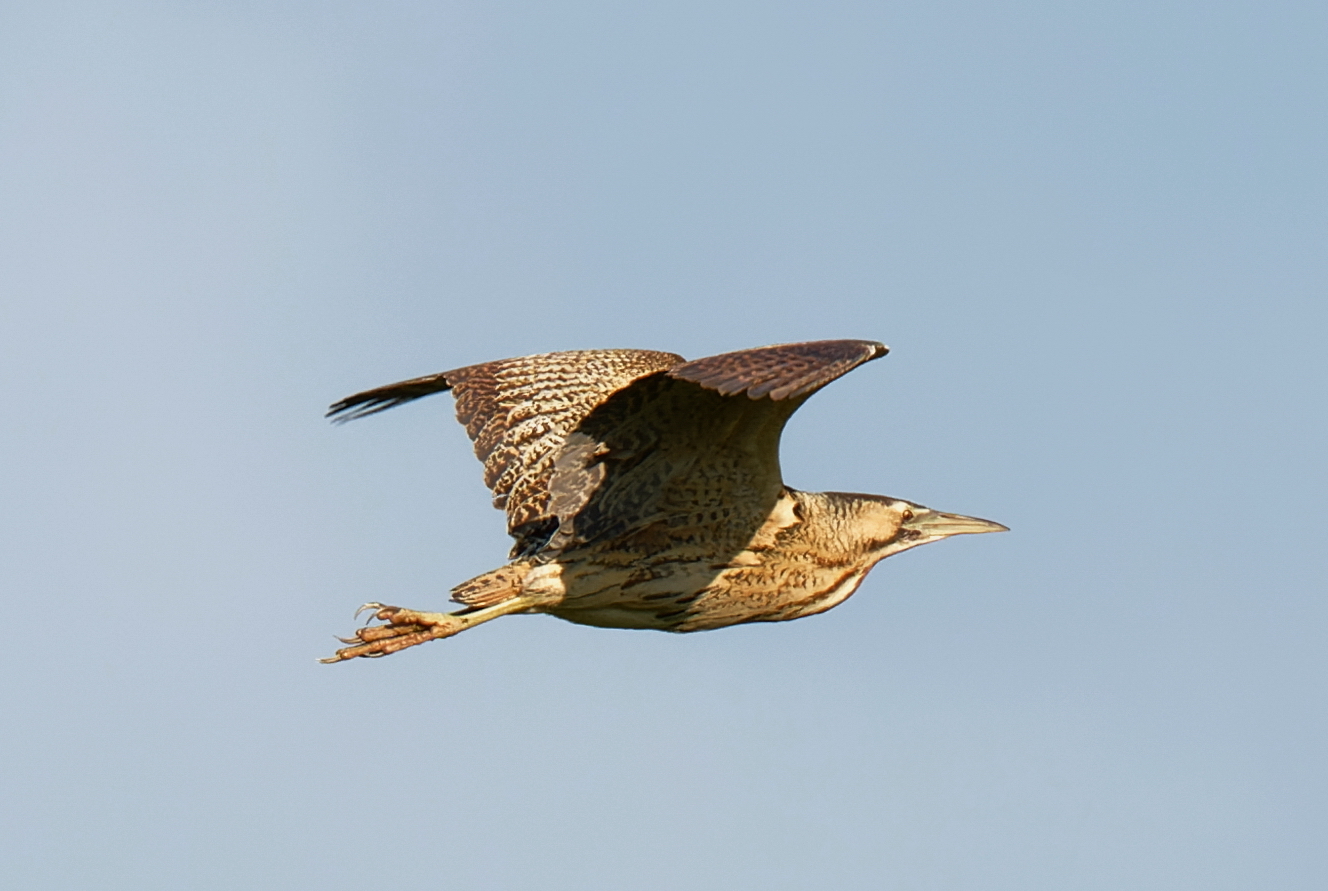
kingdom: Animalia
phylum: Chordata
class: Aves
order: Pelecaniformes
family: Ardeidae
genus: Botaurus
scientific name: Botaurus stellaris
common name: Eurasian bittern
